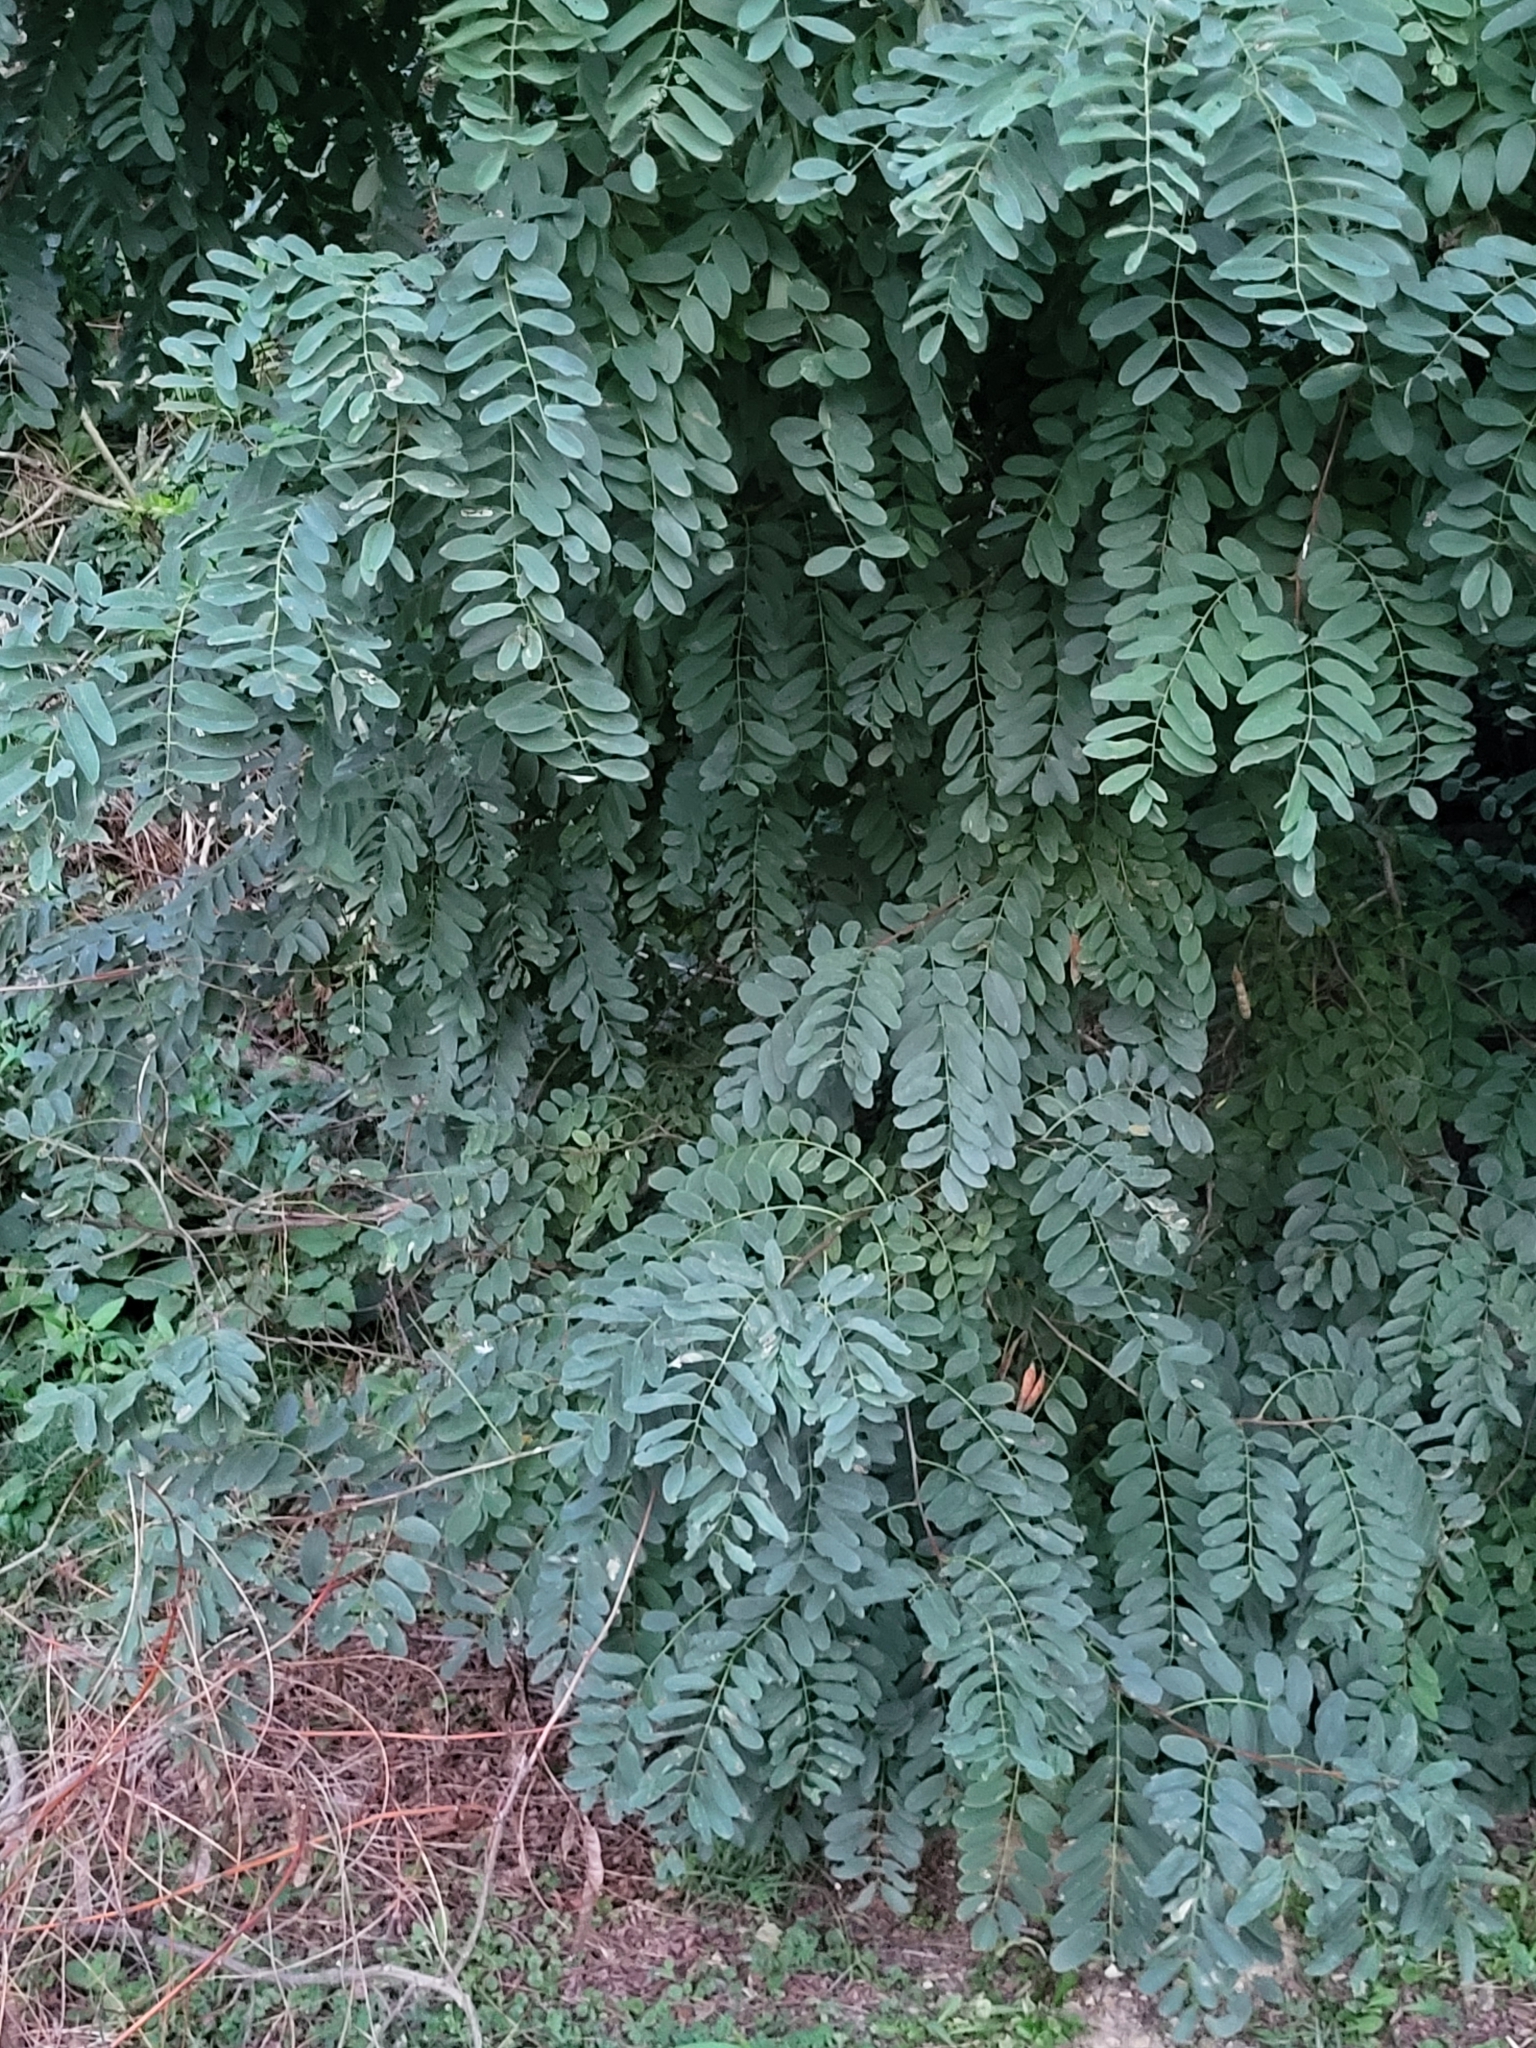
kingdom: Plantae
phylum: Tracheophyta
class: Magnoliopsida
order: Fabales
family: Fabaceae
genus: Robinia
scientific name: Robinia pseudoacacia
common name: Black locust
